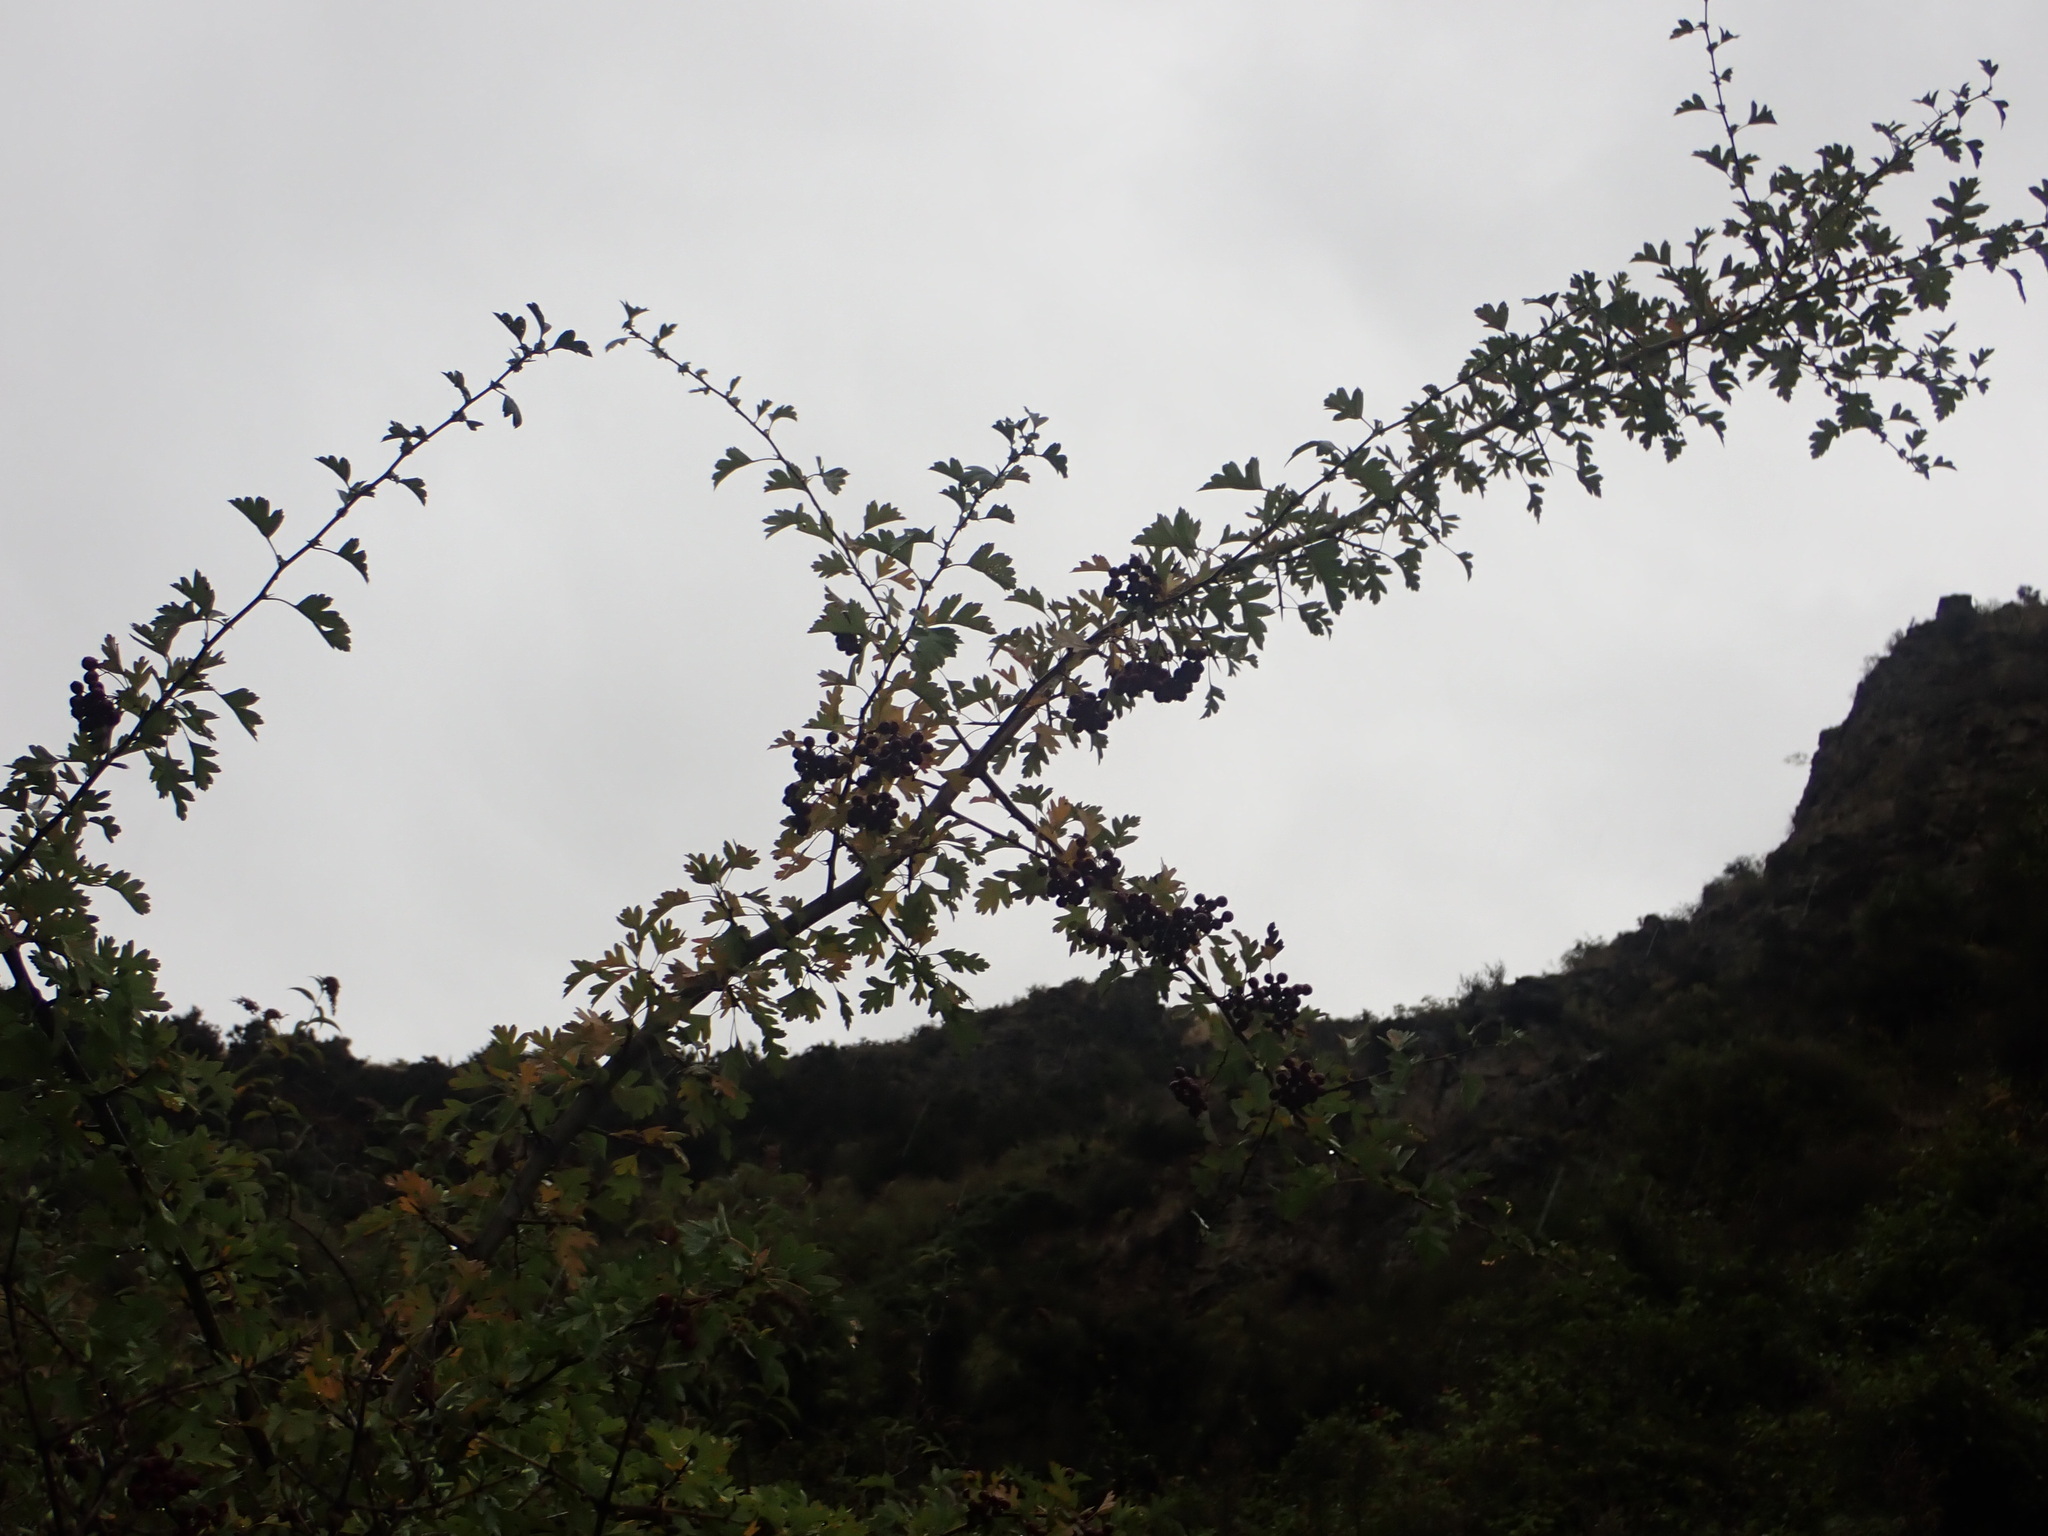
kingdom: Plantae
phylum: Tracheophyta
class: Magnoliopsida
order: Rosales
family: Rosaceae
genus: Crataegus
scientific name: Crataegus monogyna
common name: Hawthorn
